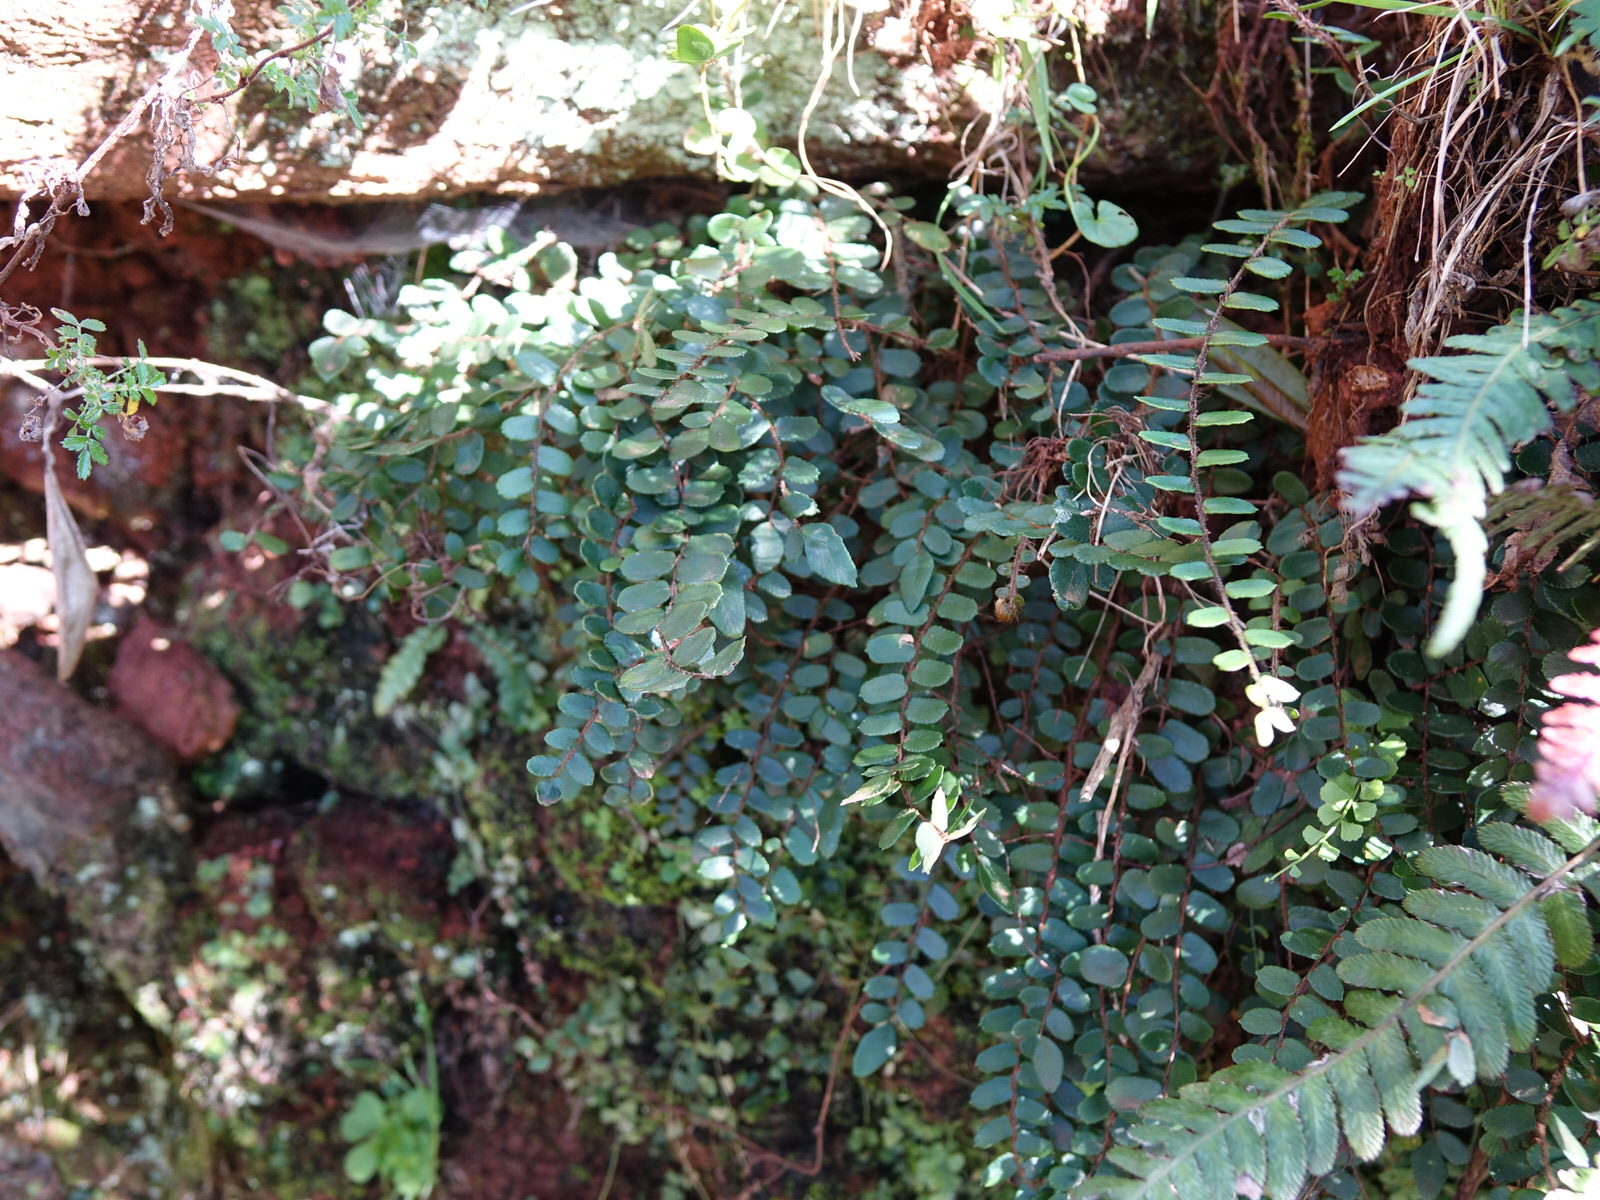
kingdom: Plantae
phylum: Tracheophyta
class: Polypodiopsida
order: Polypodiales
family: Pteridaceae
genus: Pellaea
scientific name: Pellaea rotundifolia
